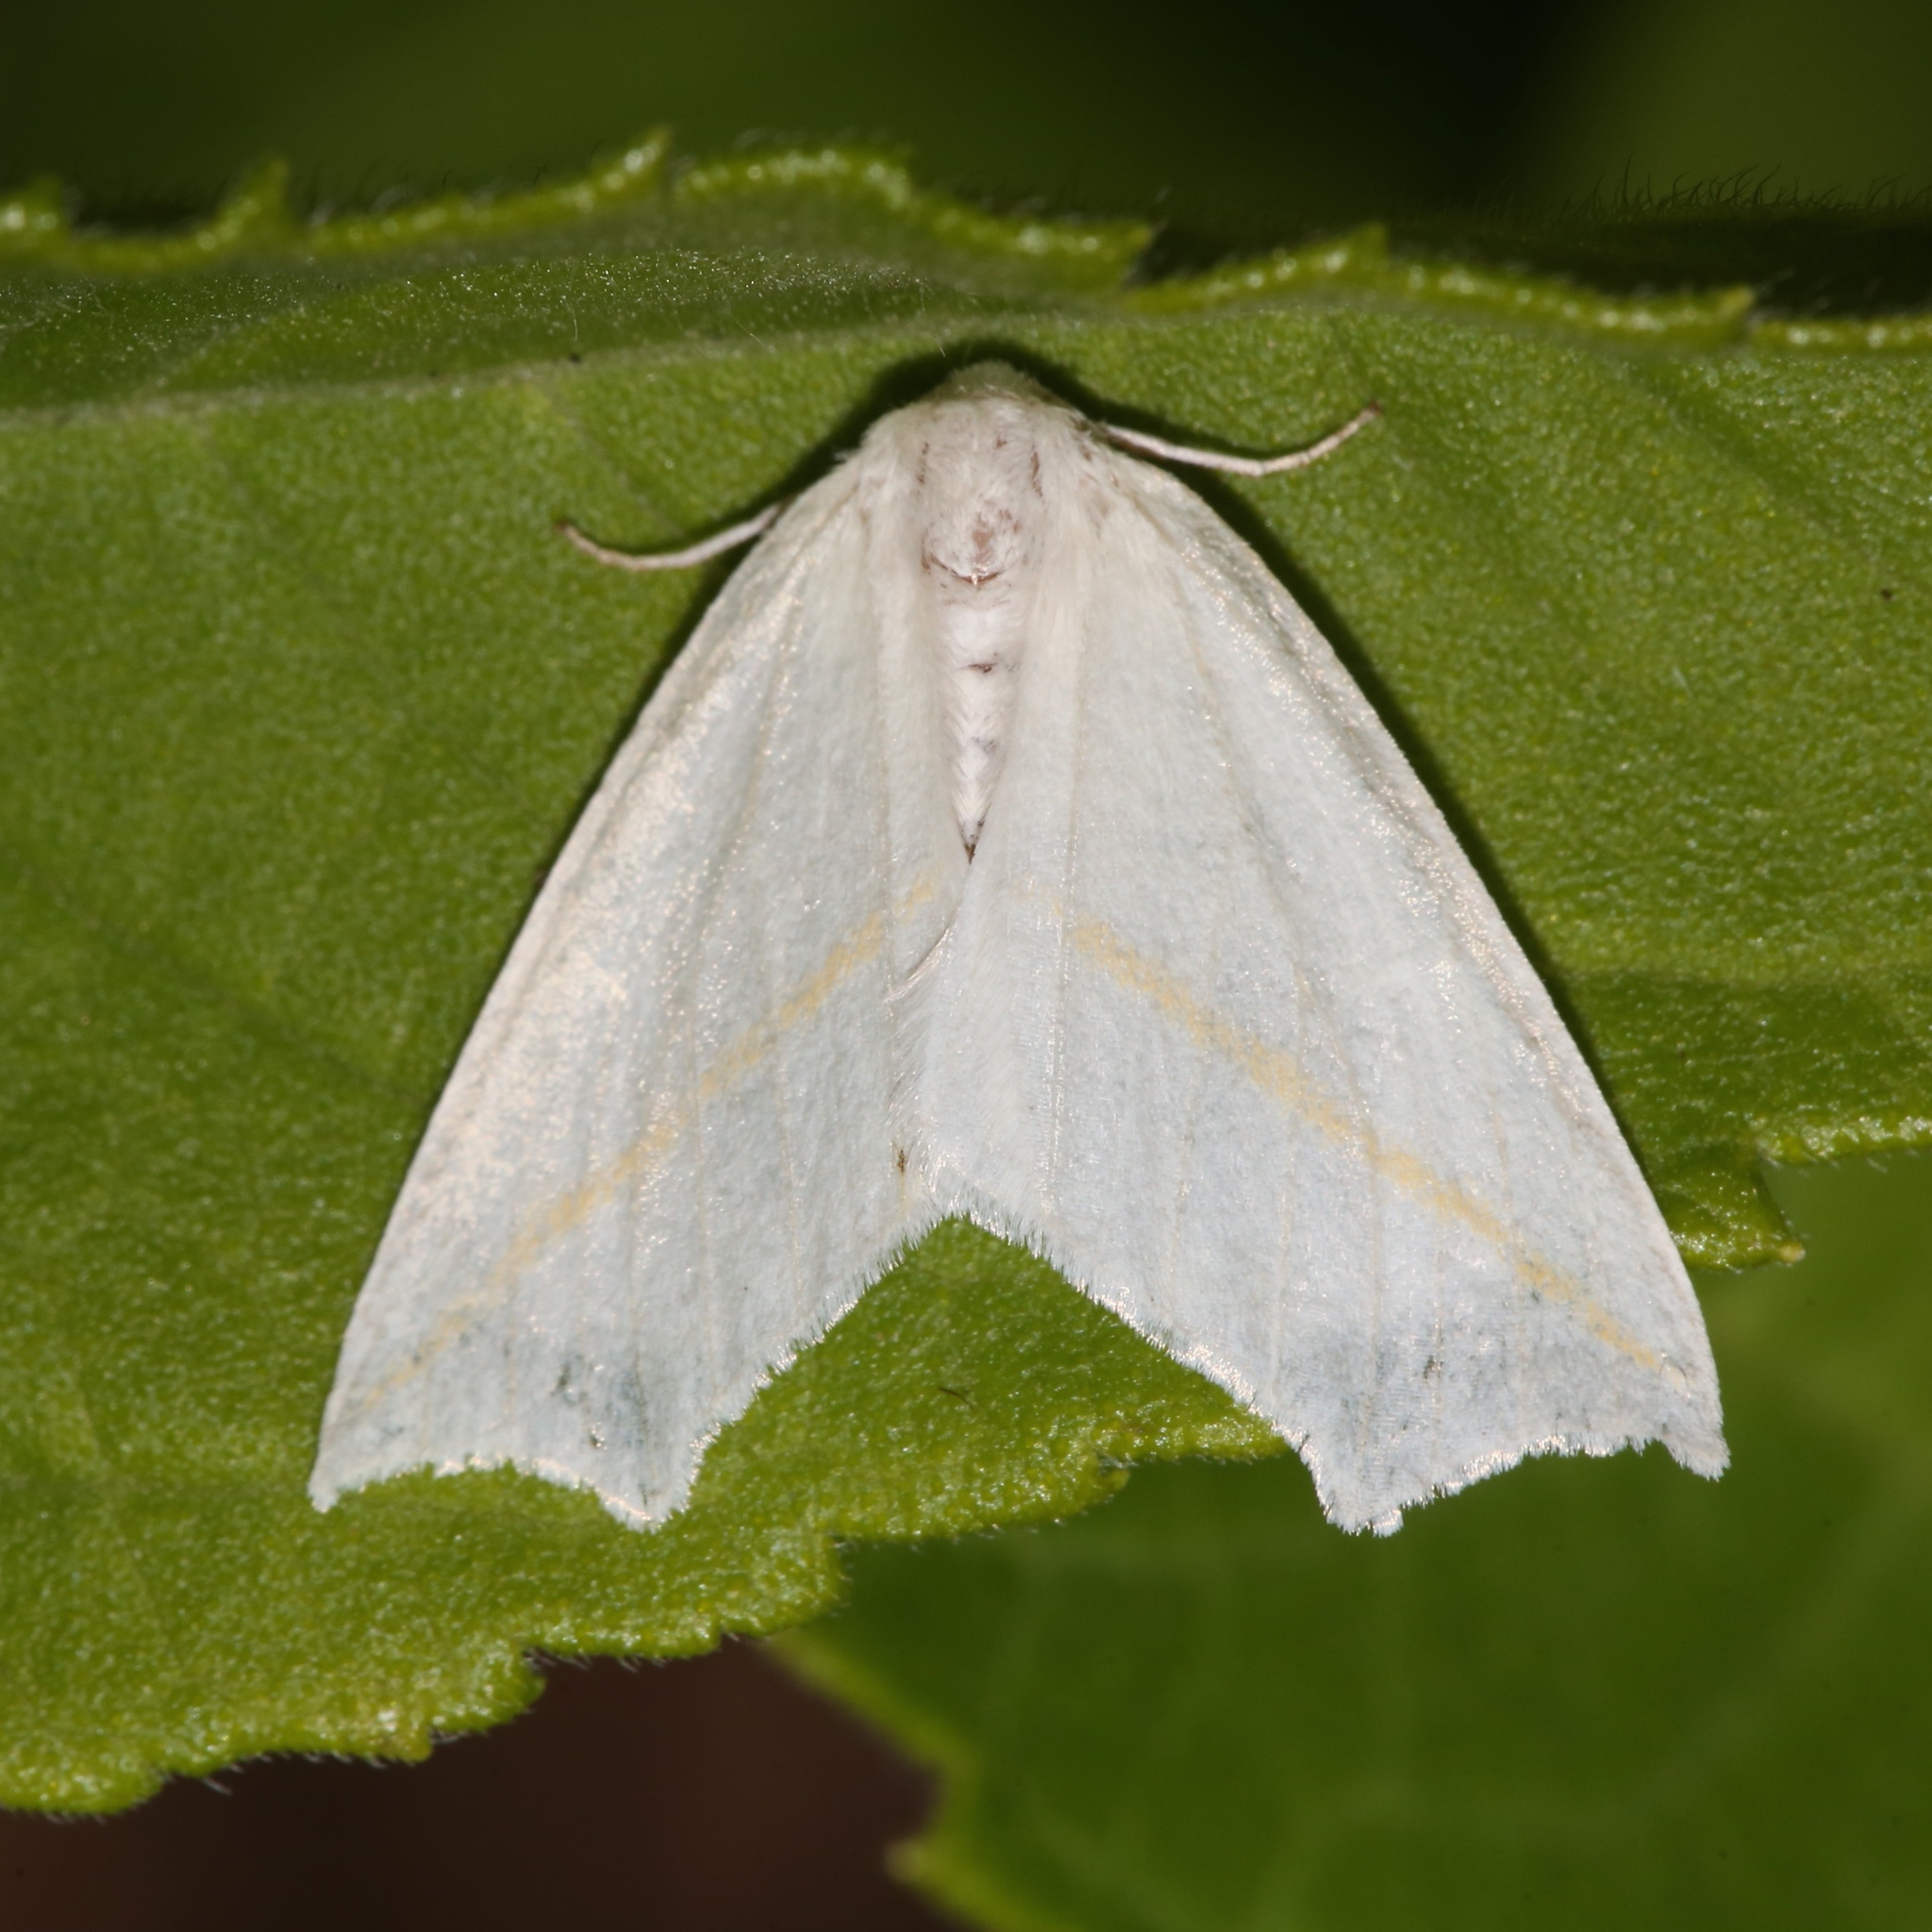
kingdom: Animalia
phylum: Arthropoda
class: Insecta
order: Lepidoptera
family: Geometridae
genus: Tetracis
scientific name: Tetracis cachexiata
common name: White slant-line
